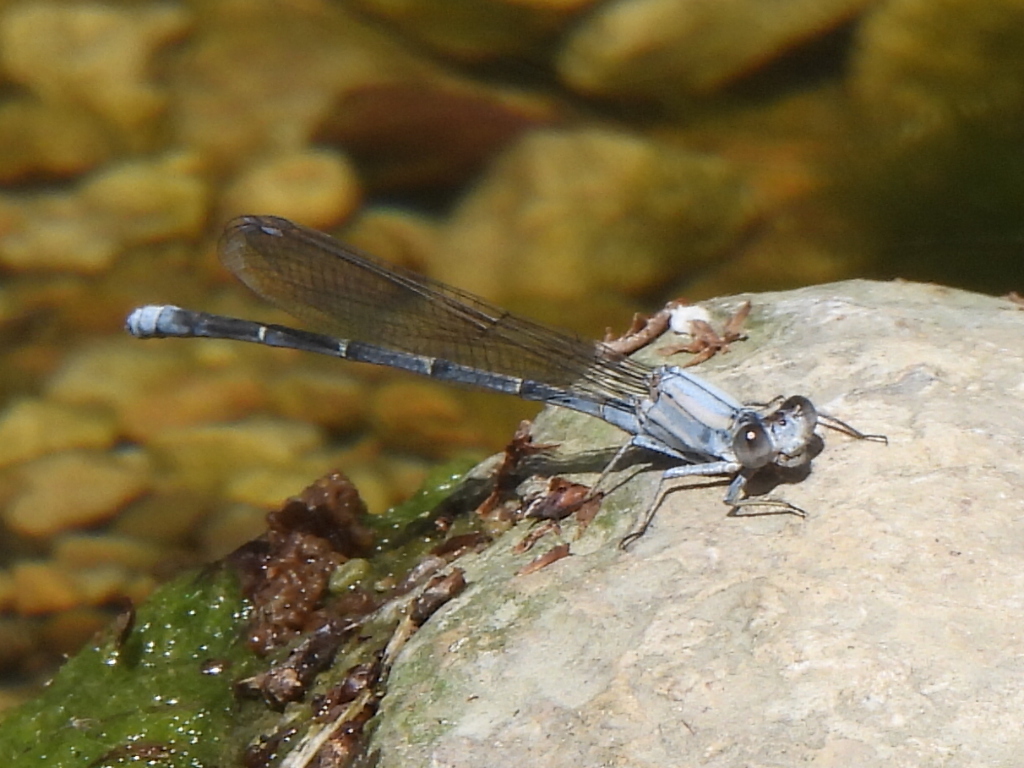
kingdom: Animalia
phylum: Arthropoda
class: Insecta
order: Odonata
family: Coenagrionidae
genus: Argia
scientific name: Argia moesta
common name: Powdered dancer
